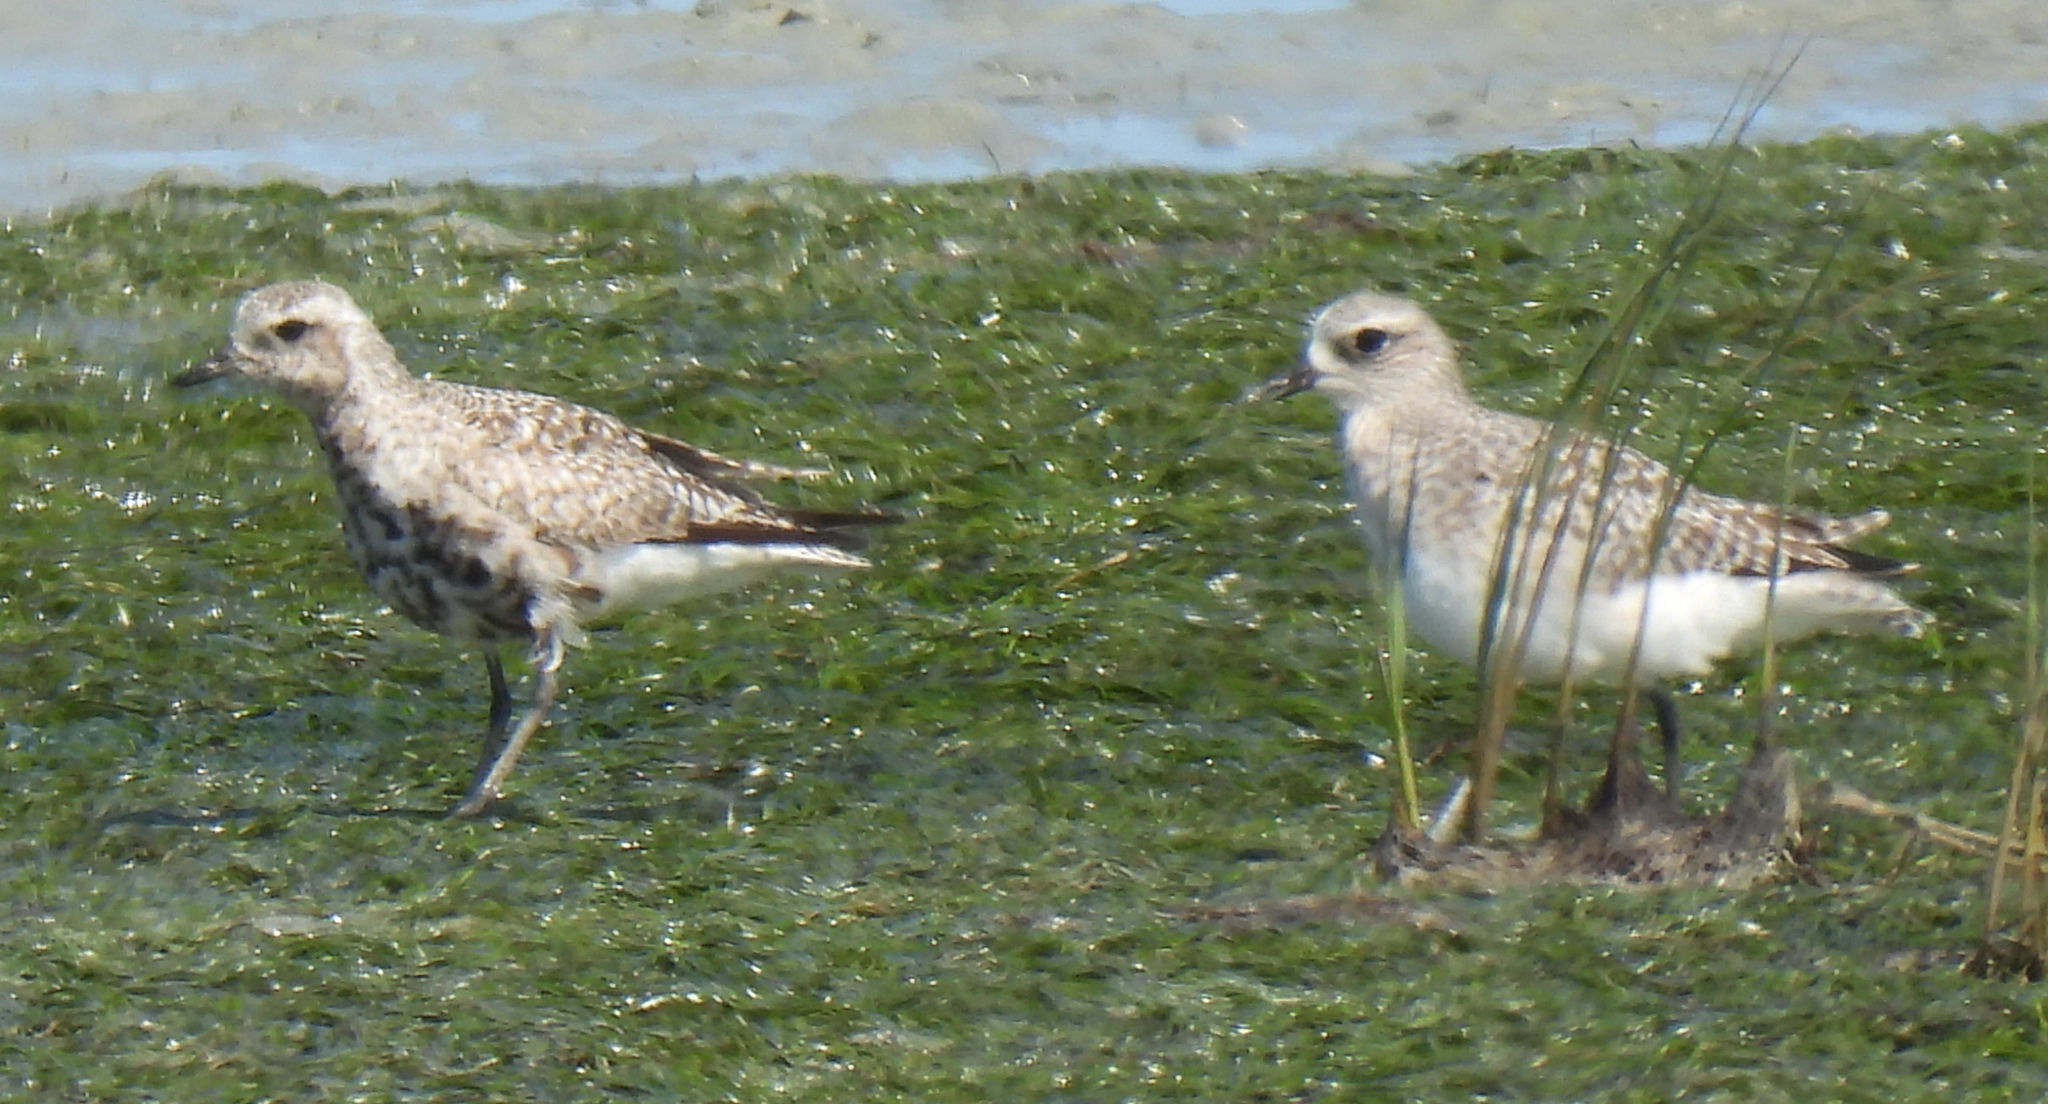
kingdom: Animalia
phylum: Chordata
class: Aves
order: Charadriiformes
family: Charadriidae
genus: Pluvialis
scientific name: Pluvialis squatarola
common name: Grey plover
